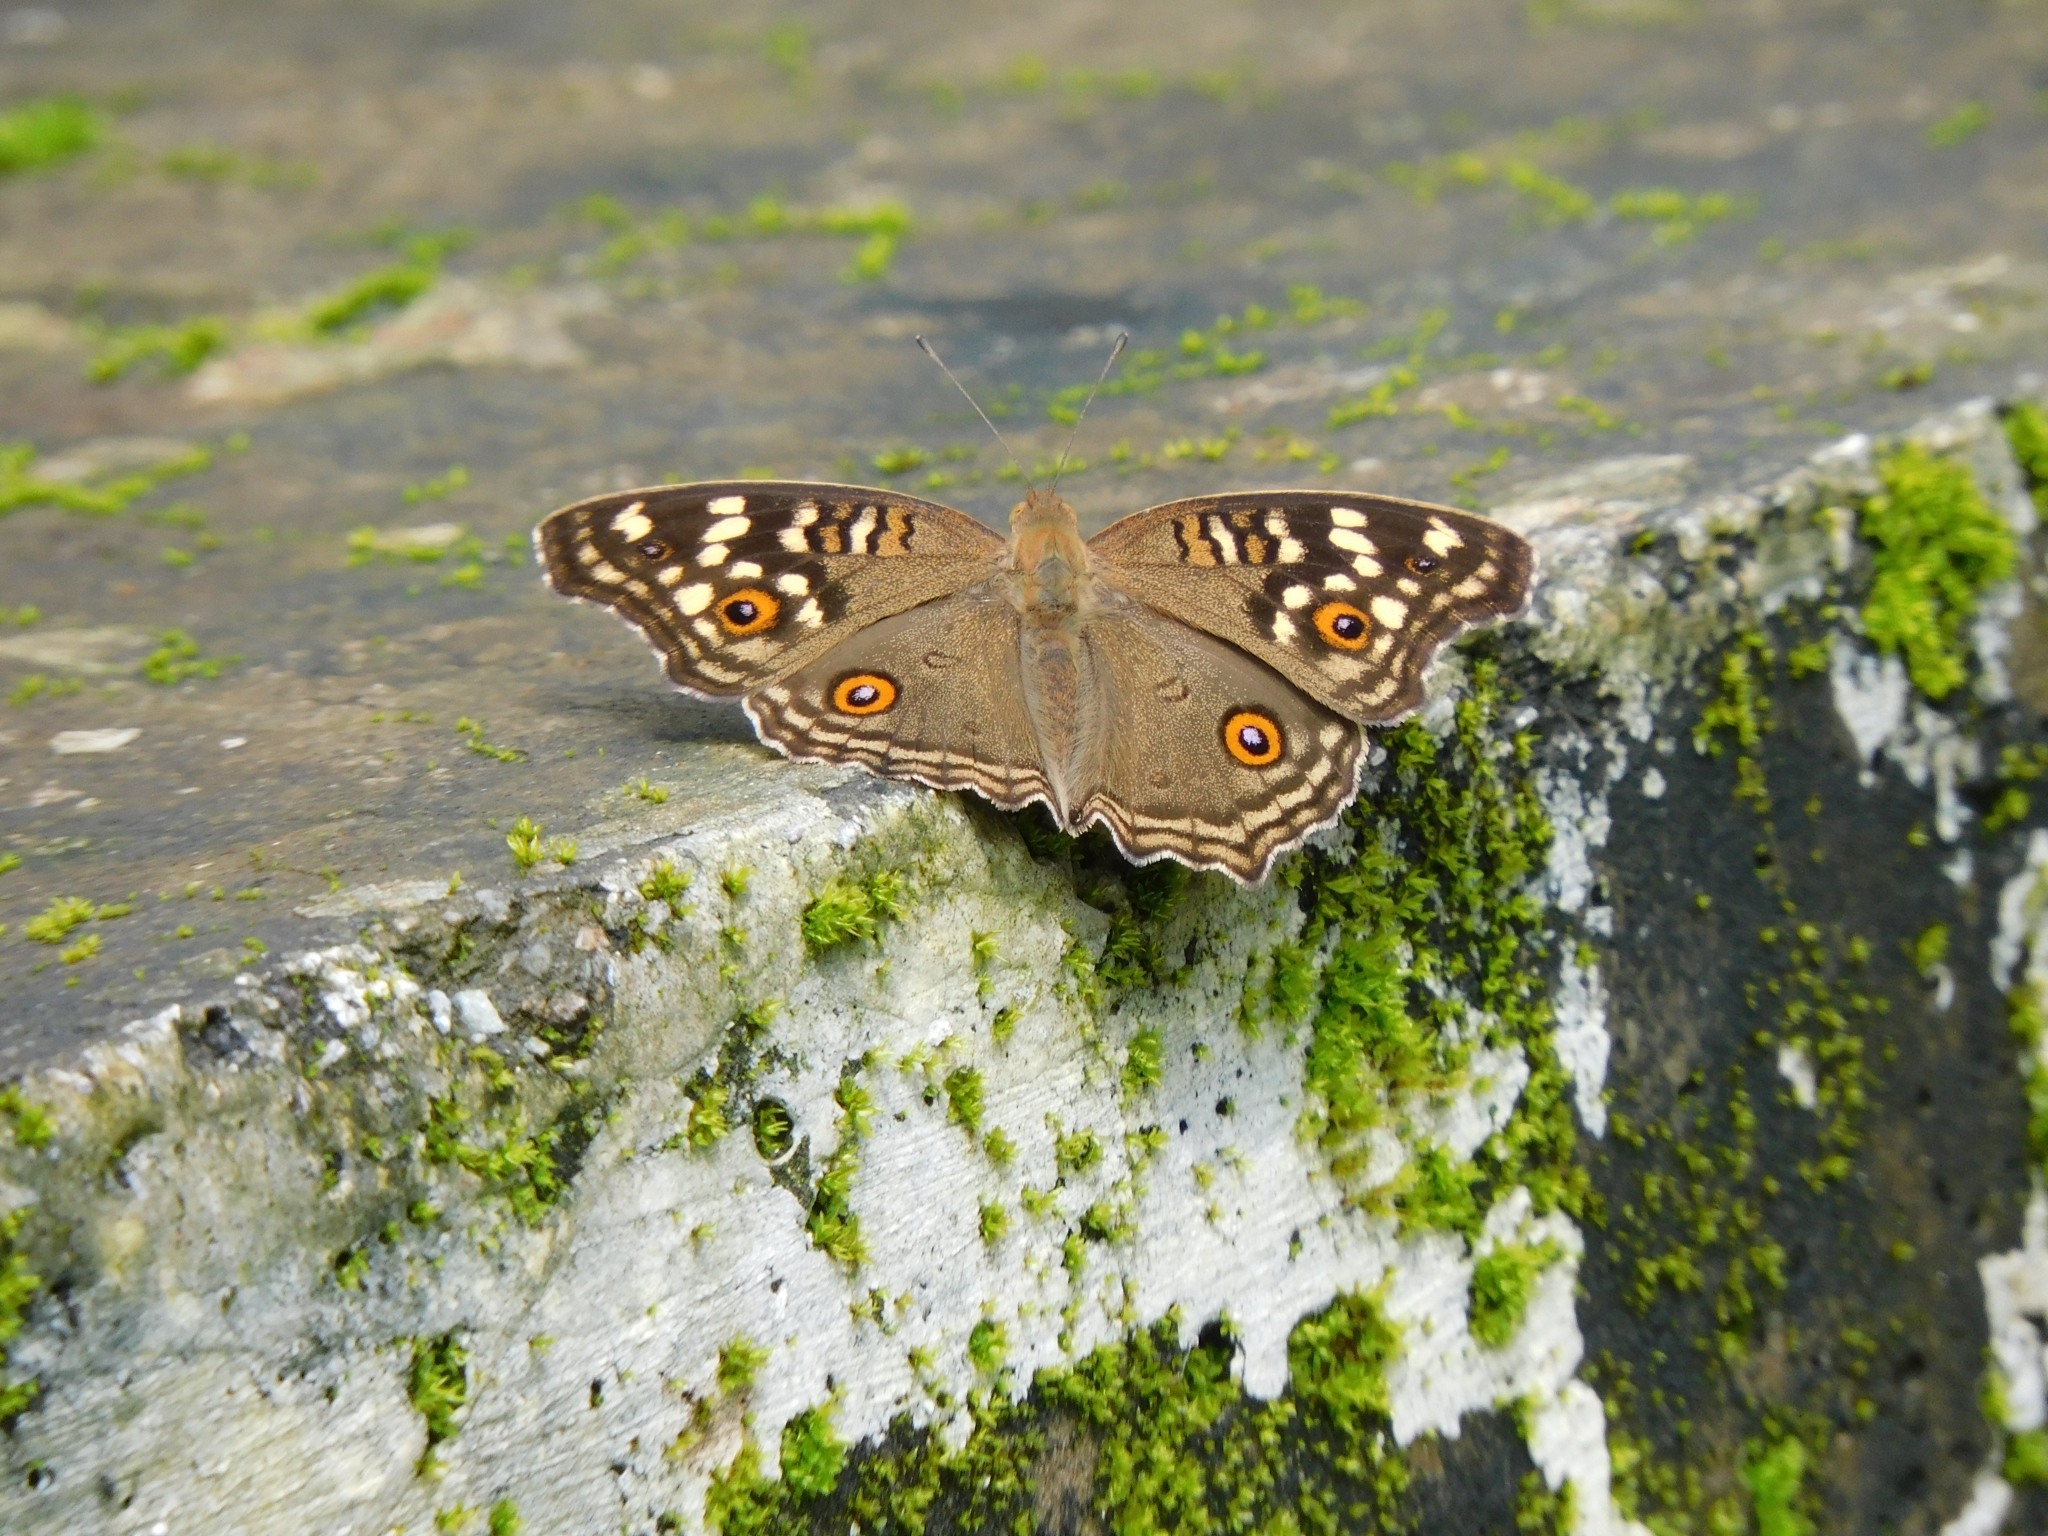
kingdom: Animalia
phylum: Arthropoda
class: Insecta
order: Lepidoptera
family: Nymphalidae
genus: Junonia
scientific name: Junonia lemonias
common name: Lemon pansy
